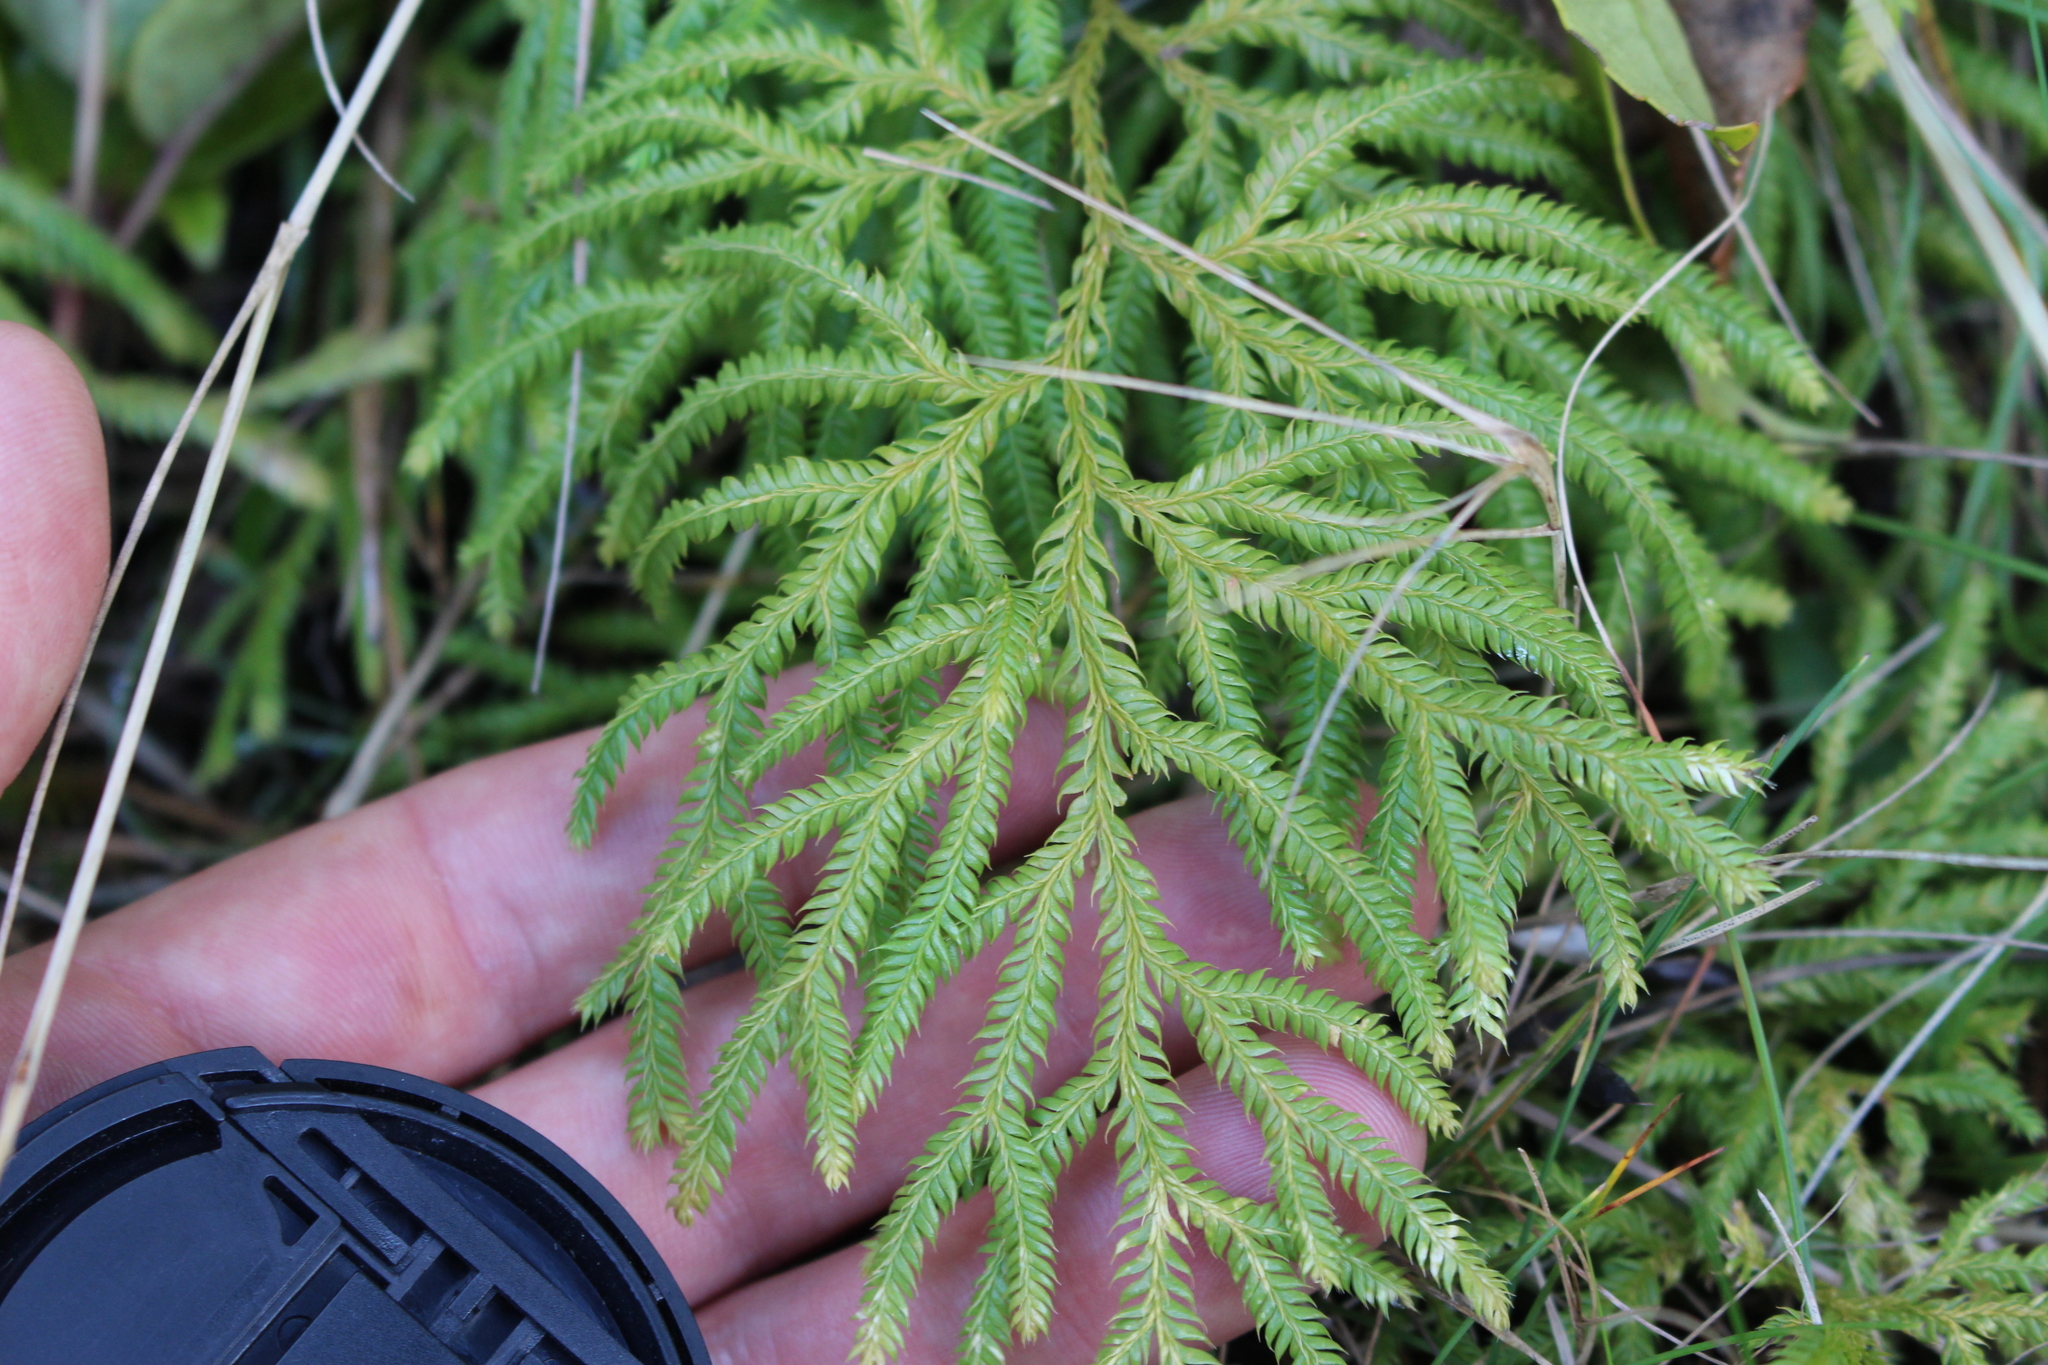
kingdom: Plantae
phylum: Tracheophyta
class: Lycopodiopsida
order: Lycopodiales
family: Lycopodiaceae
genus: Lycopodium
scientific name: Lycopodium volubile
